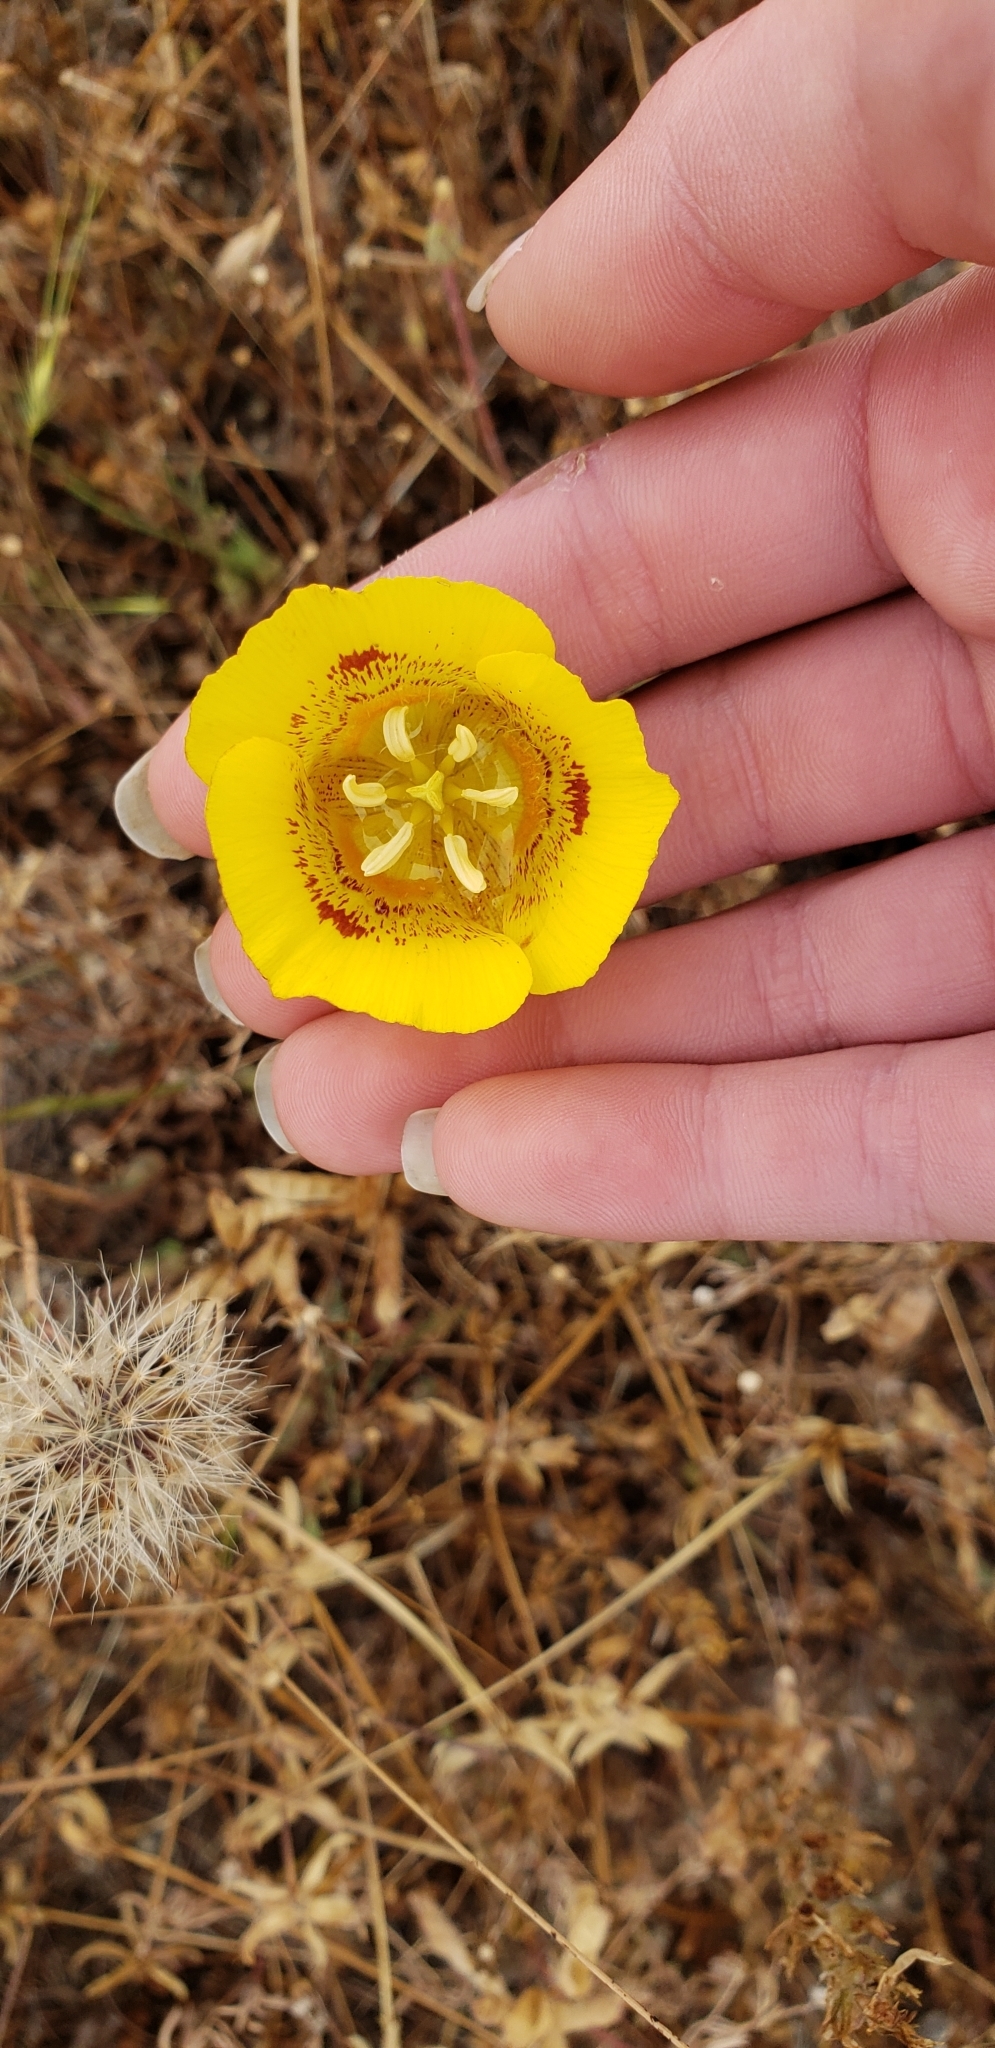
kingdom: Plantae
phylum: Tracheophyta
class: Liliopsida
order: Liliales
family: Liliaceae
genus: Calochortus
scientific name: Calochortus luteus
